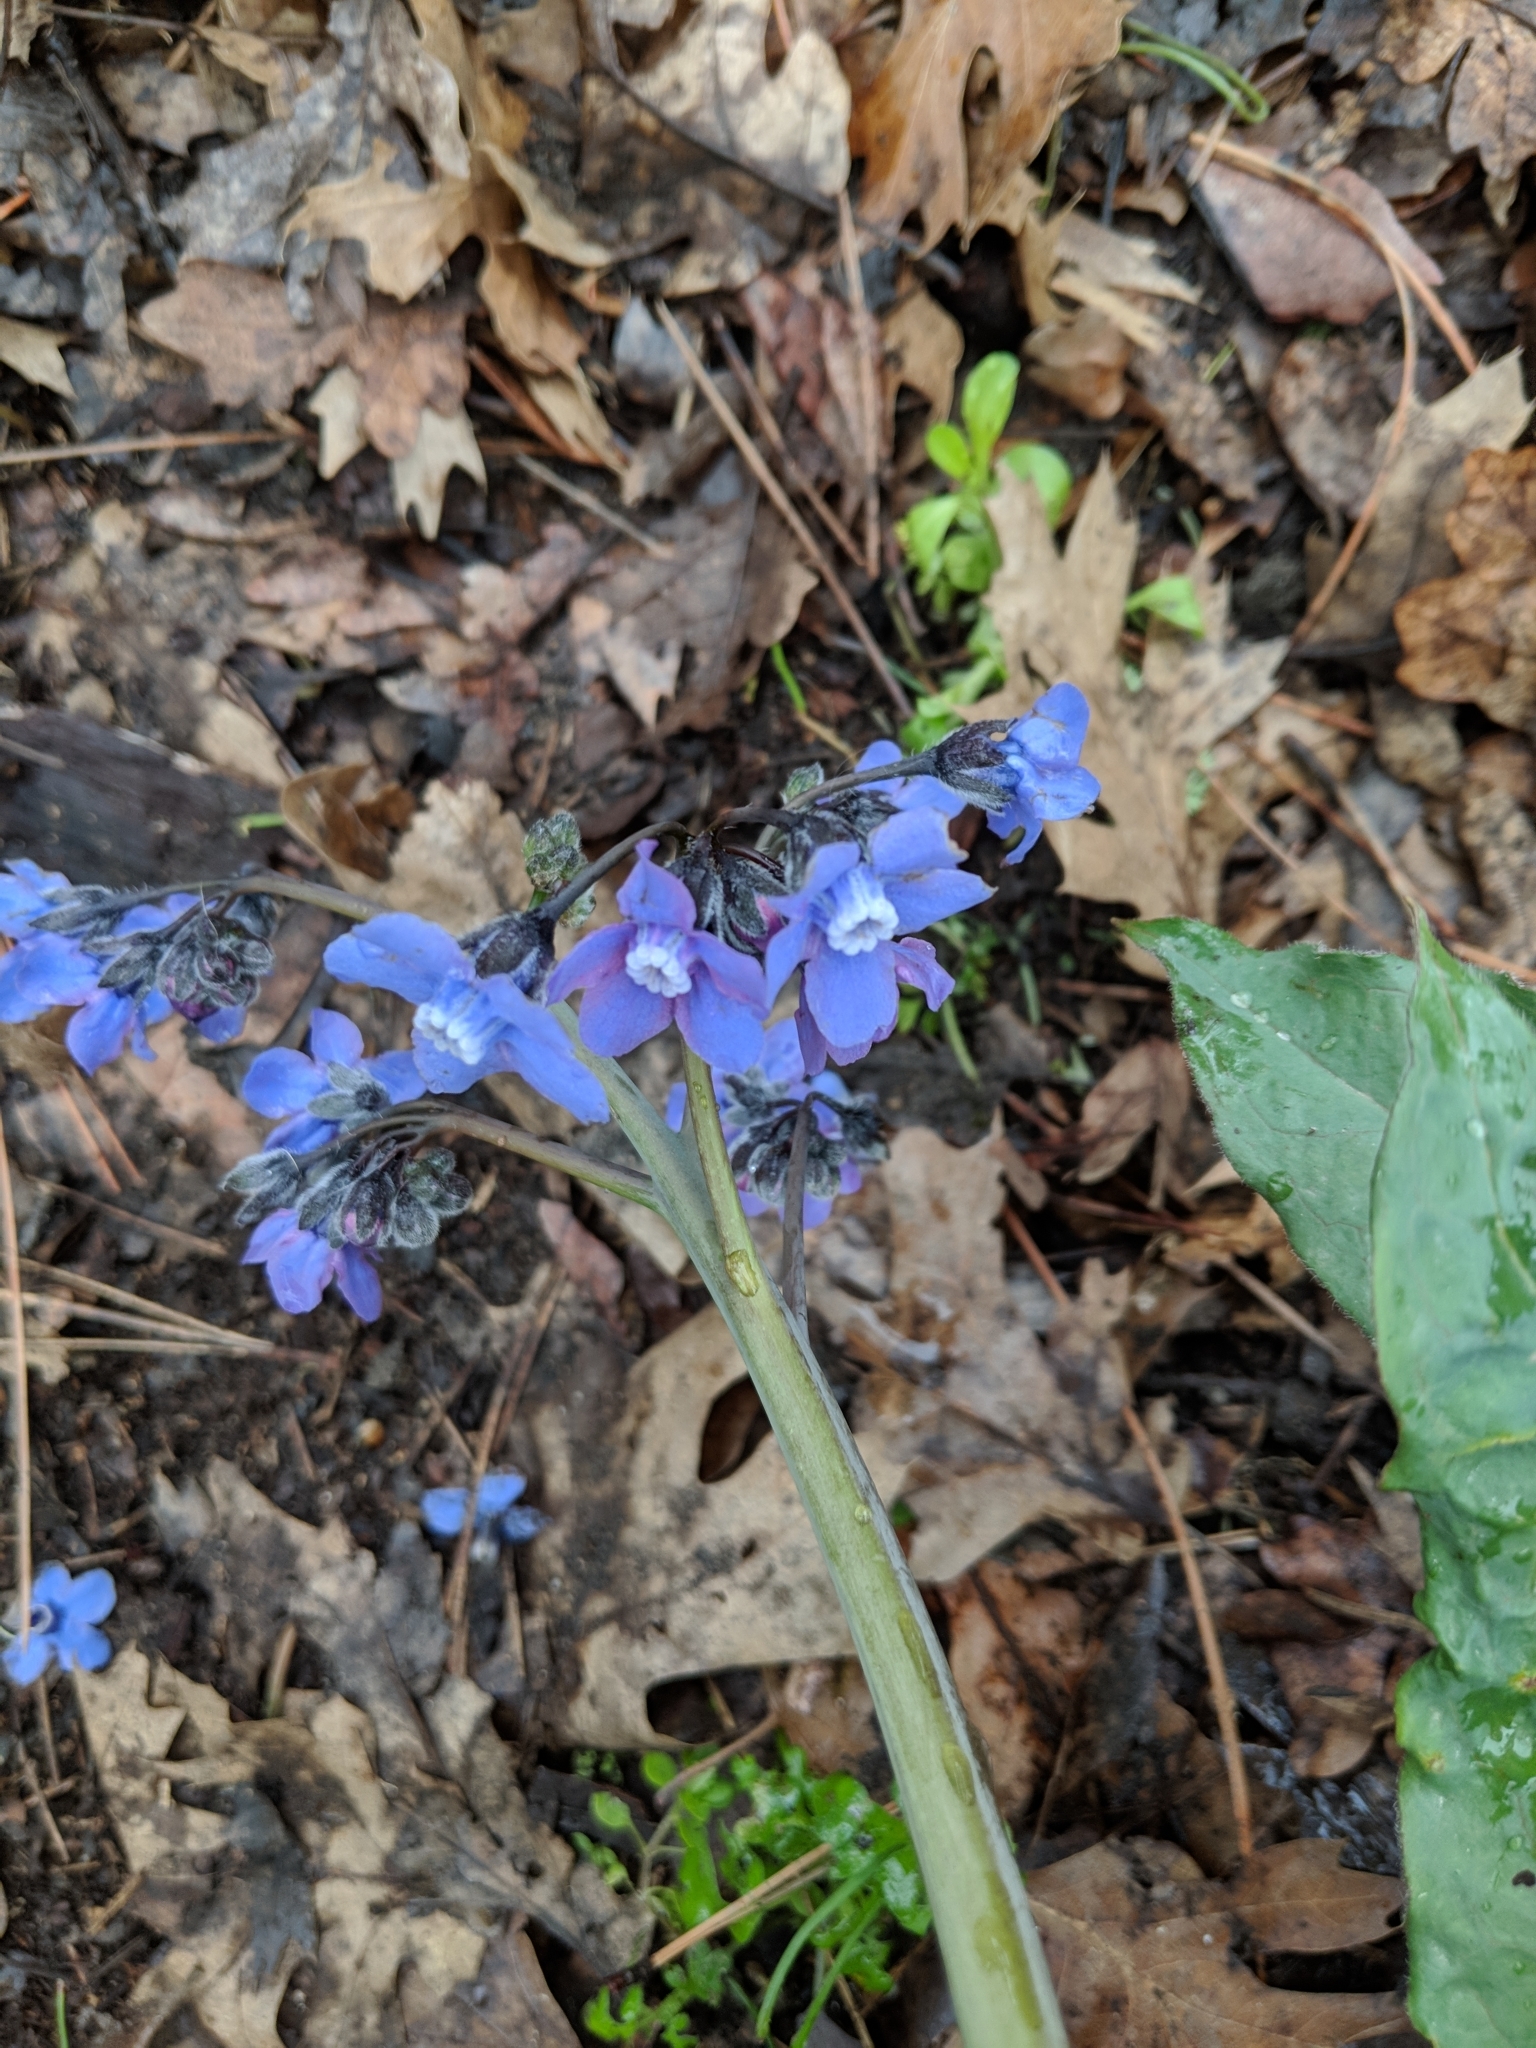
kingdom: Plantae
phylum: Tracheophyta
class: Magnoliopsida
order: Boraginales
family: Boraginaceae
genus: Adelinia
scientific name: Adelinia grande
